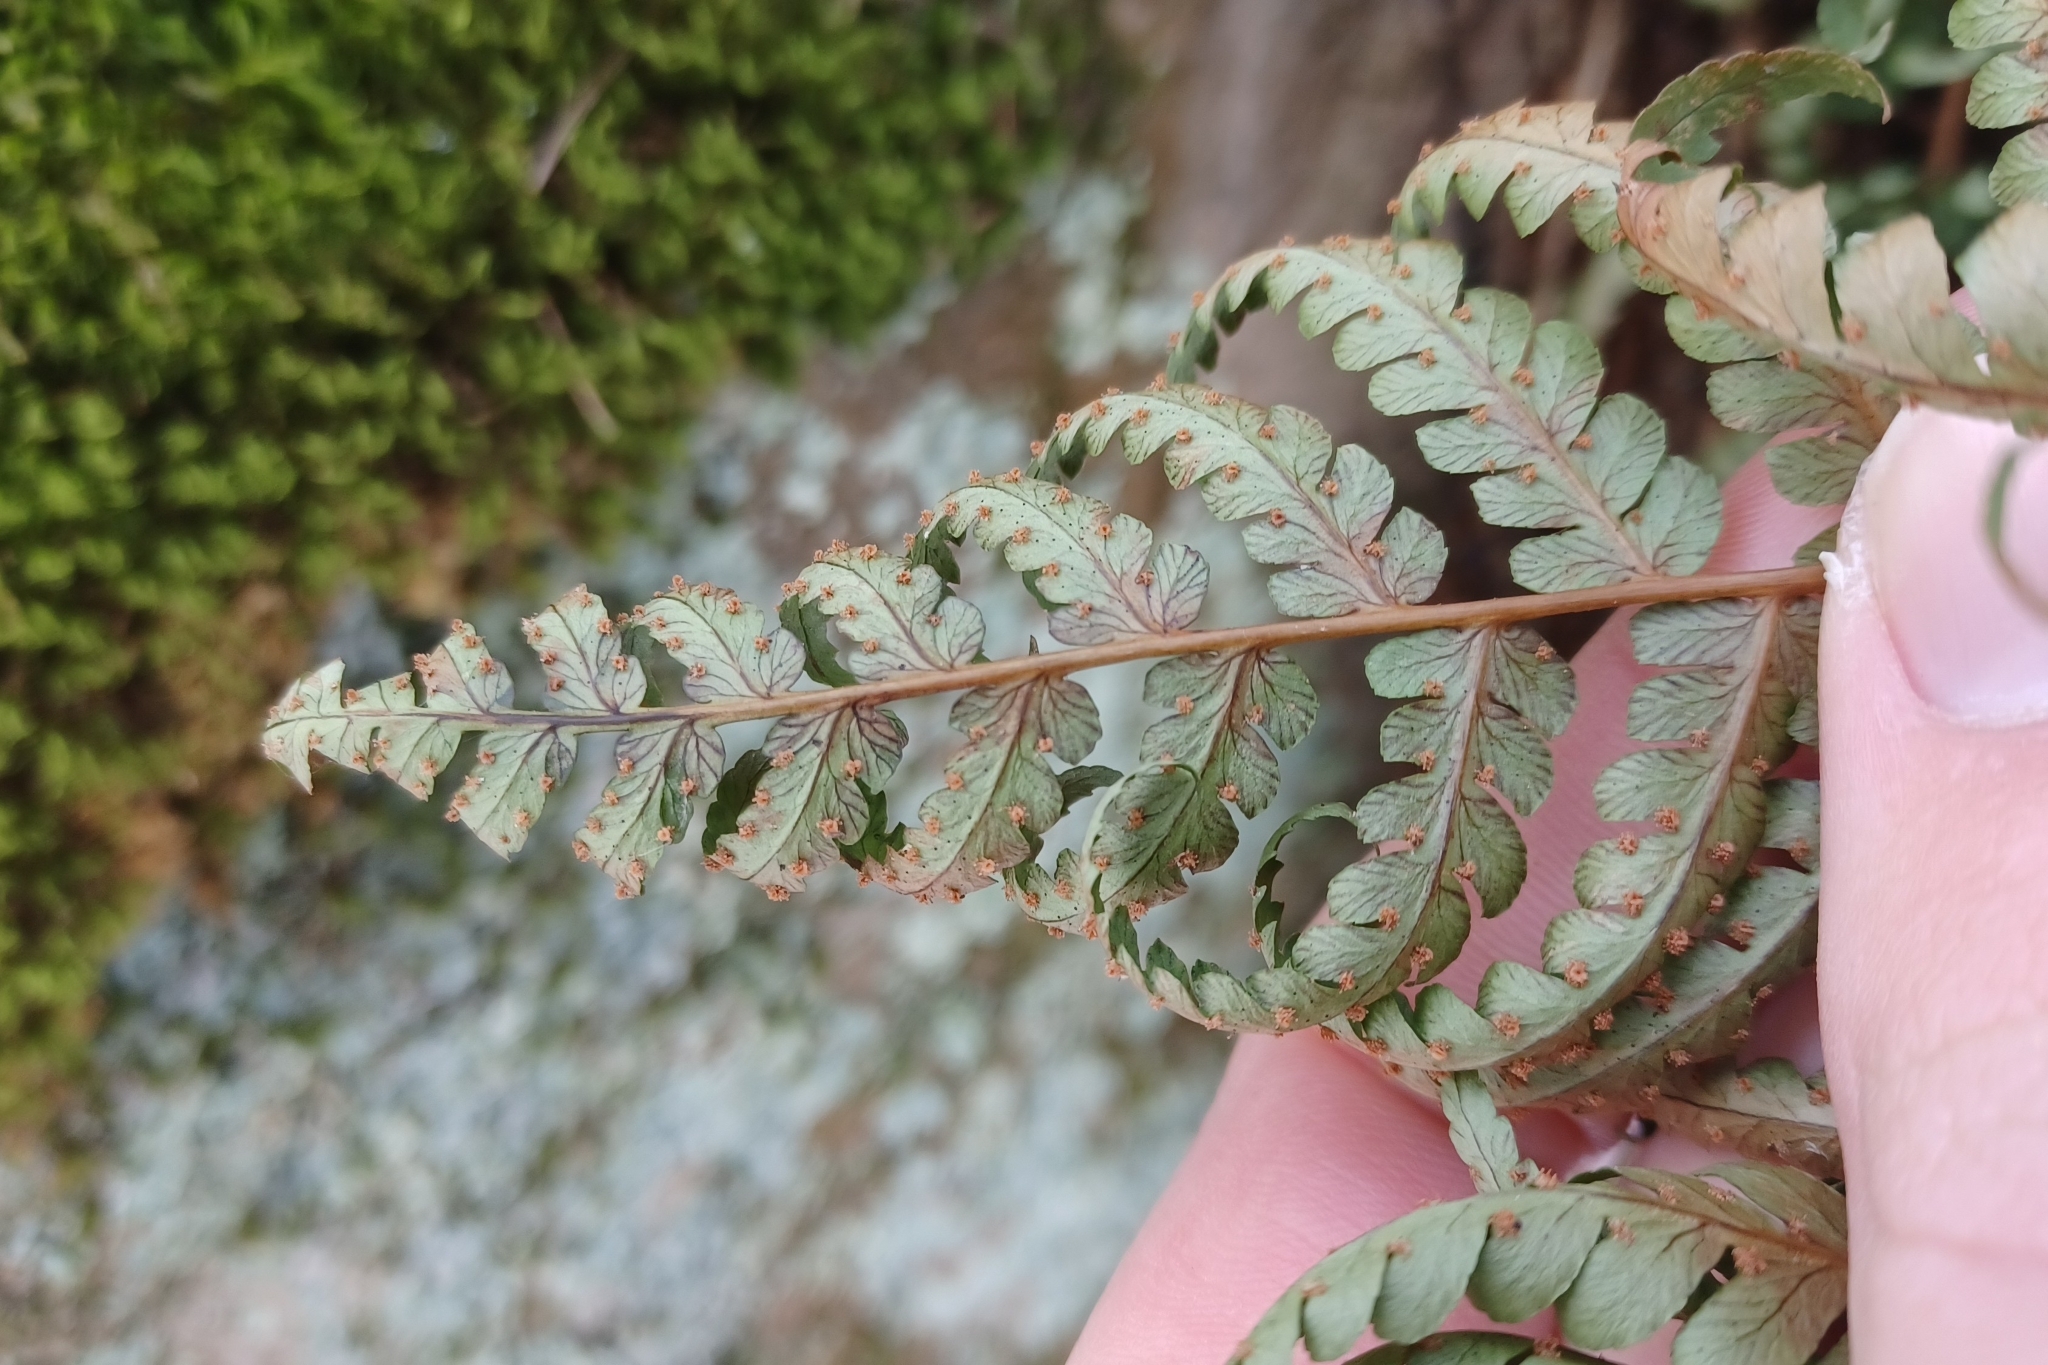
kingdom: Plantae
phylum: Tracheophyta
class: Polypodiopsida
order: Polypodiales
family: Dryopteridaceae
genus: Dryopteris
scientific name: Dryopteris marginalis
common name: Marginal wood fern
